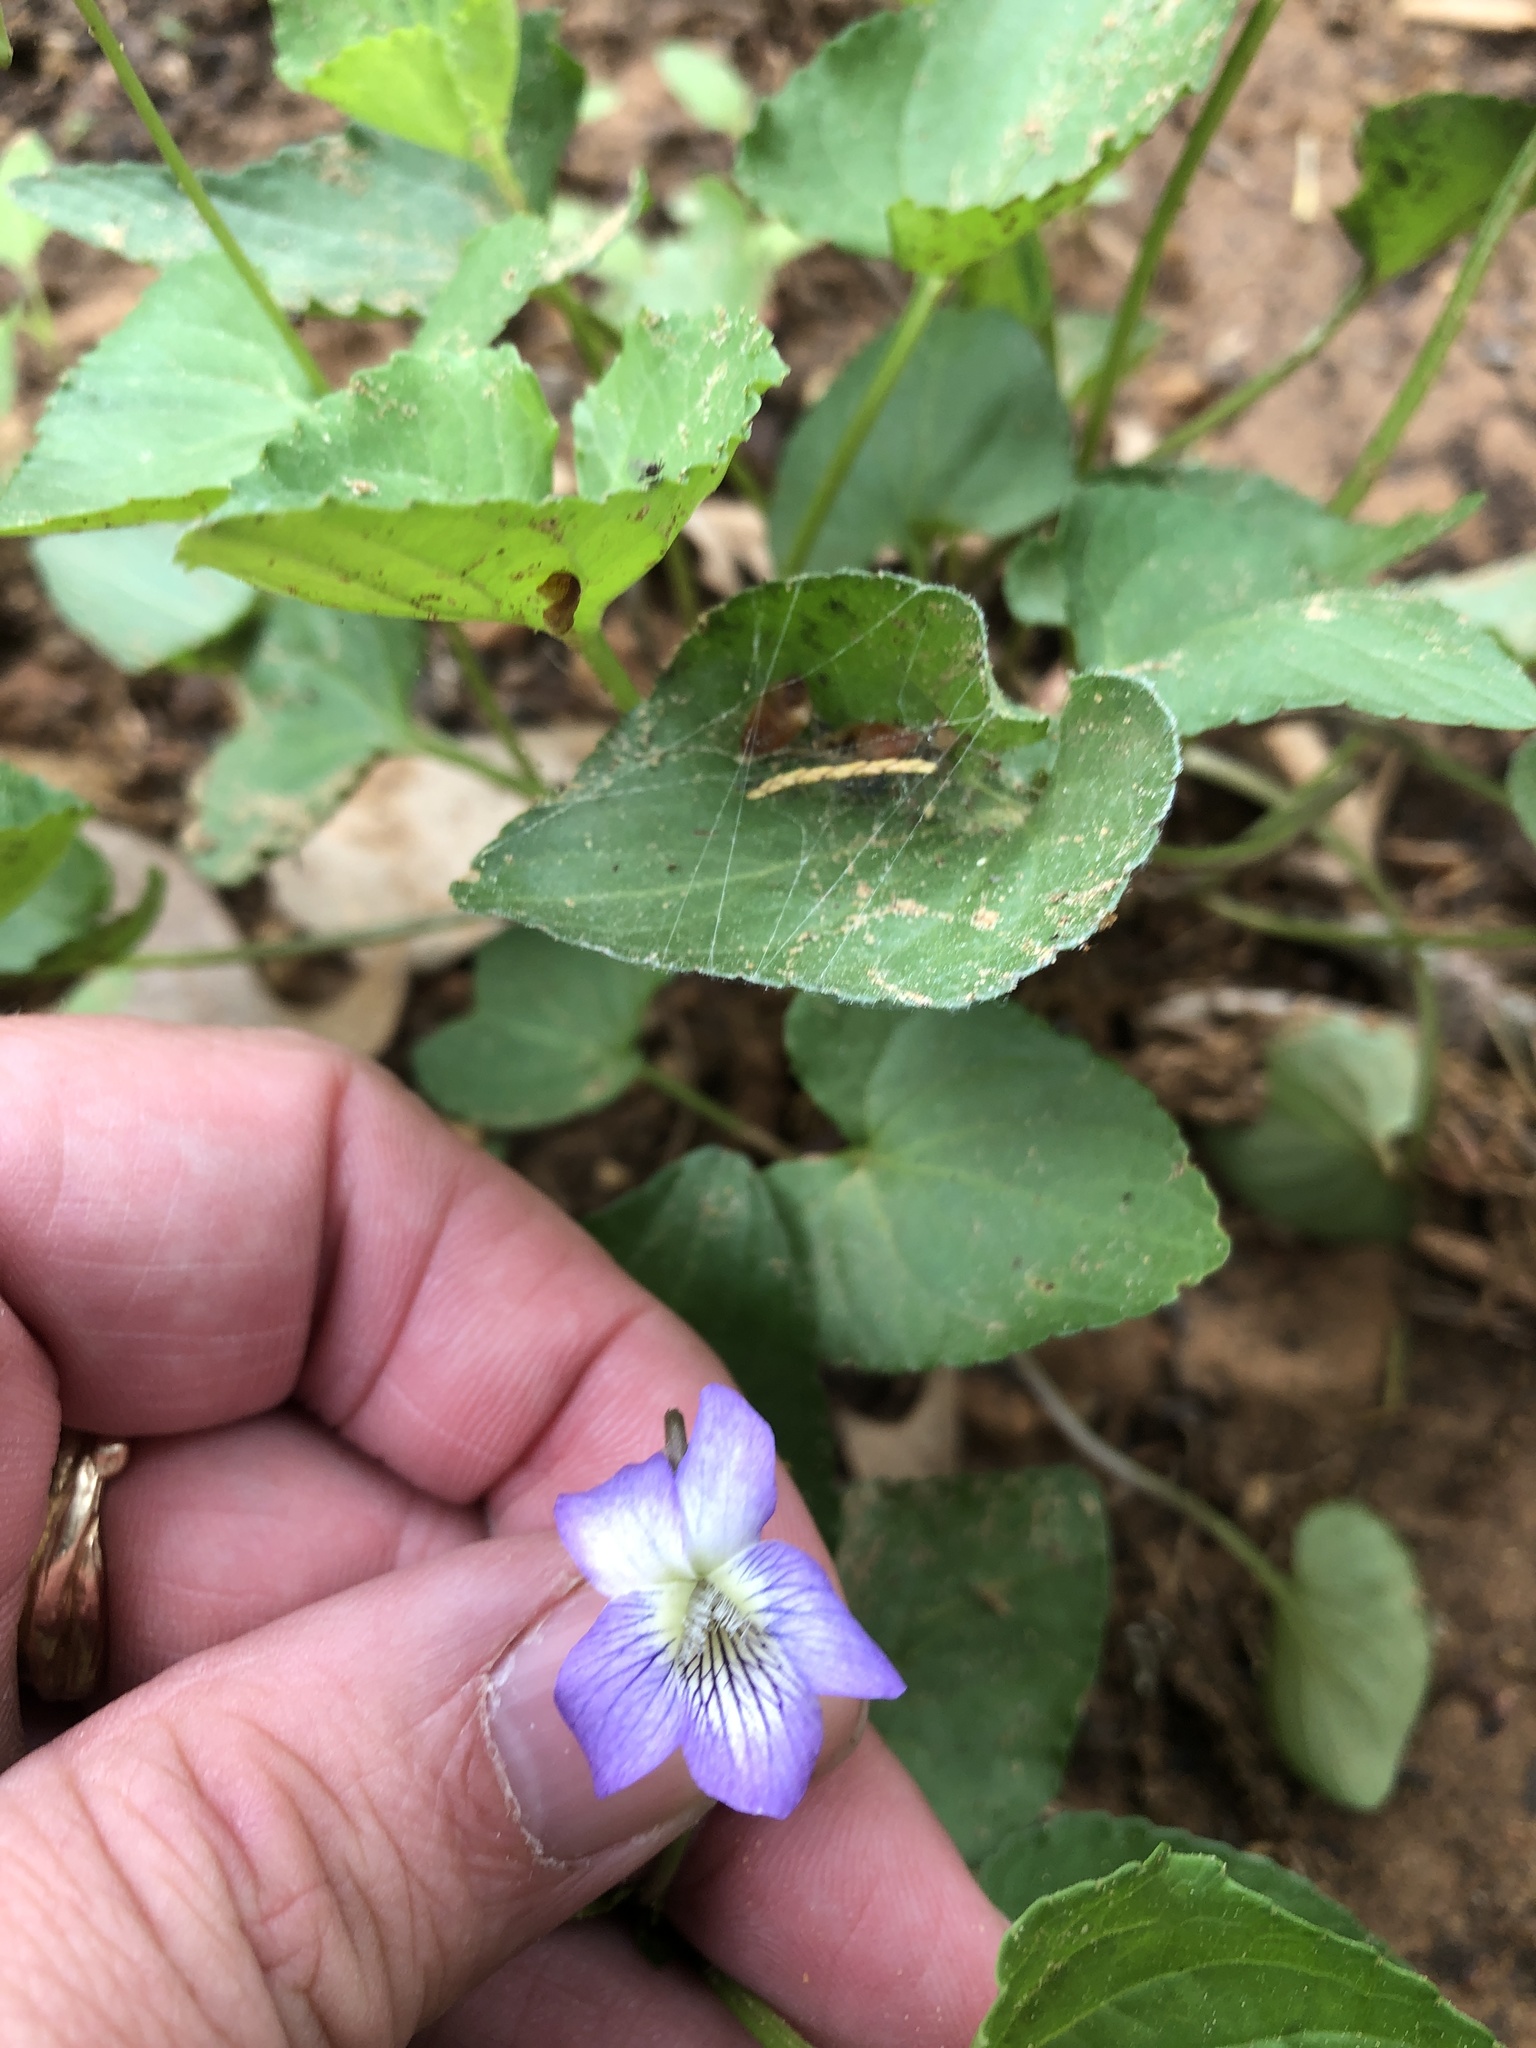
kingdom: Plantae
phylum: Tracheophyta
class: Magnoliopsida
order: Malpighiales
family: Violaceae
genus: Viola
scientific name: Viola sororia
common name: Dooryard violet
